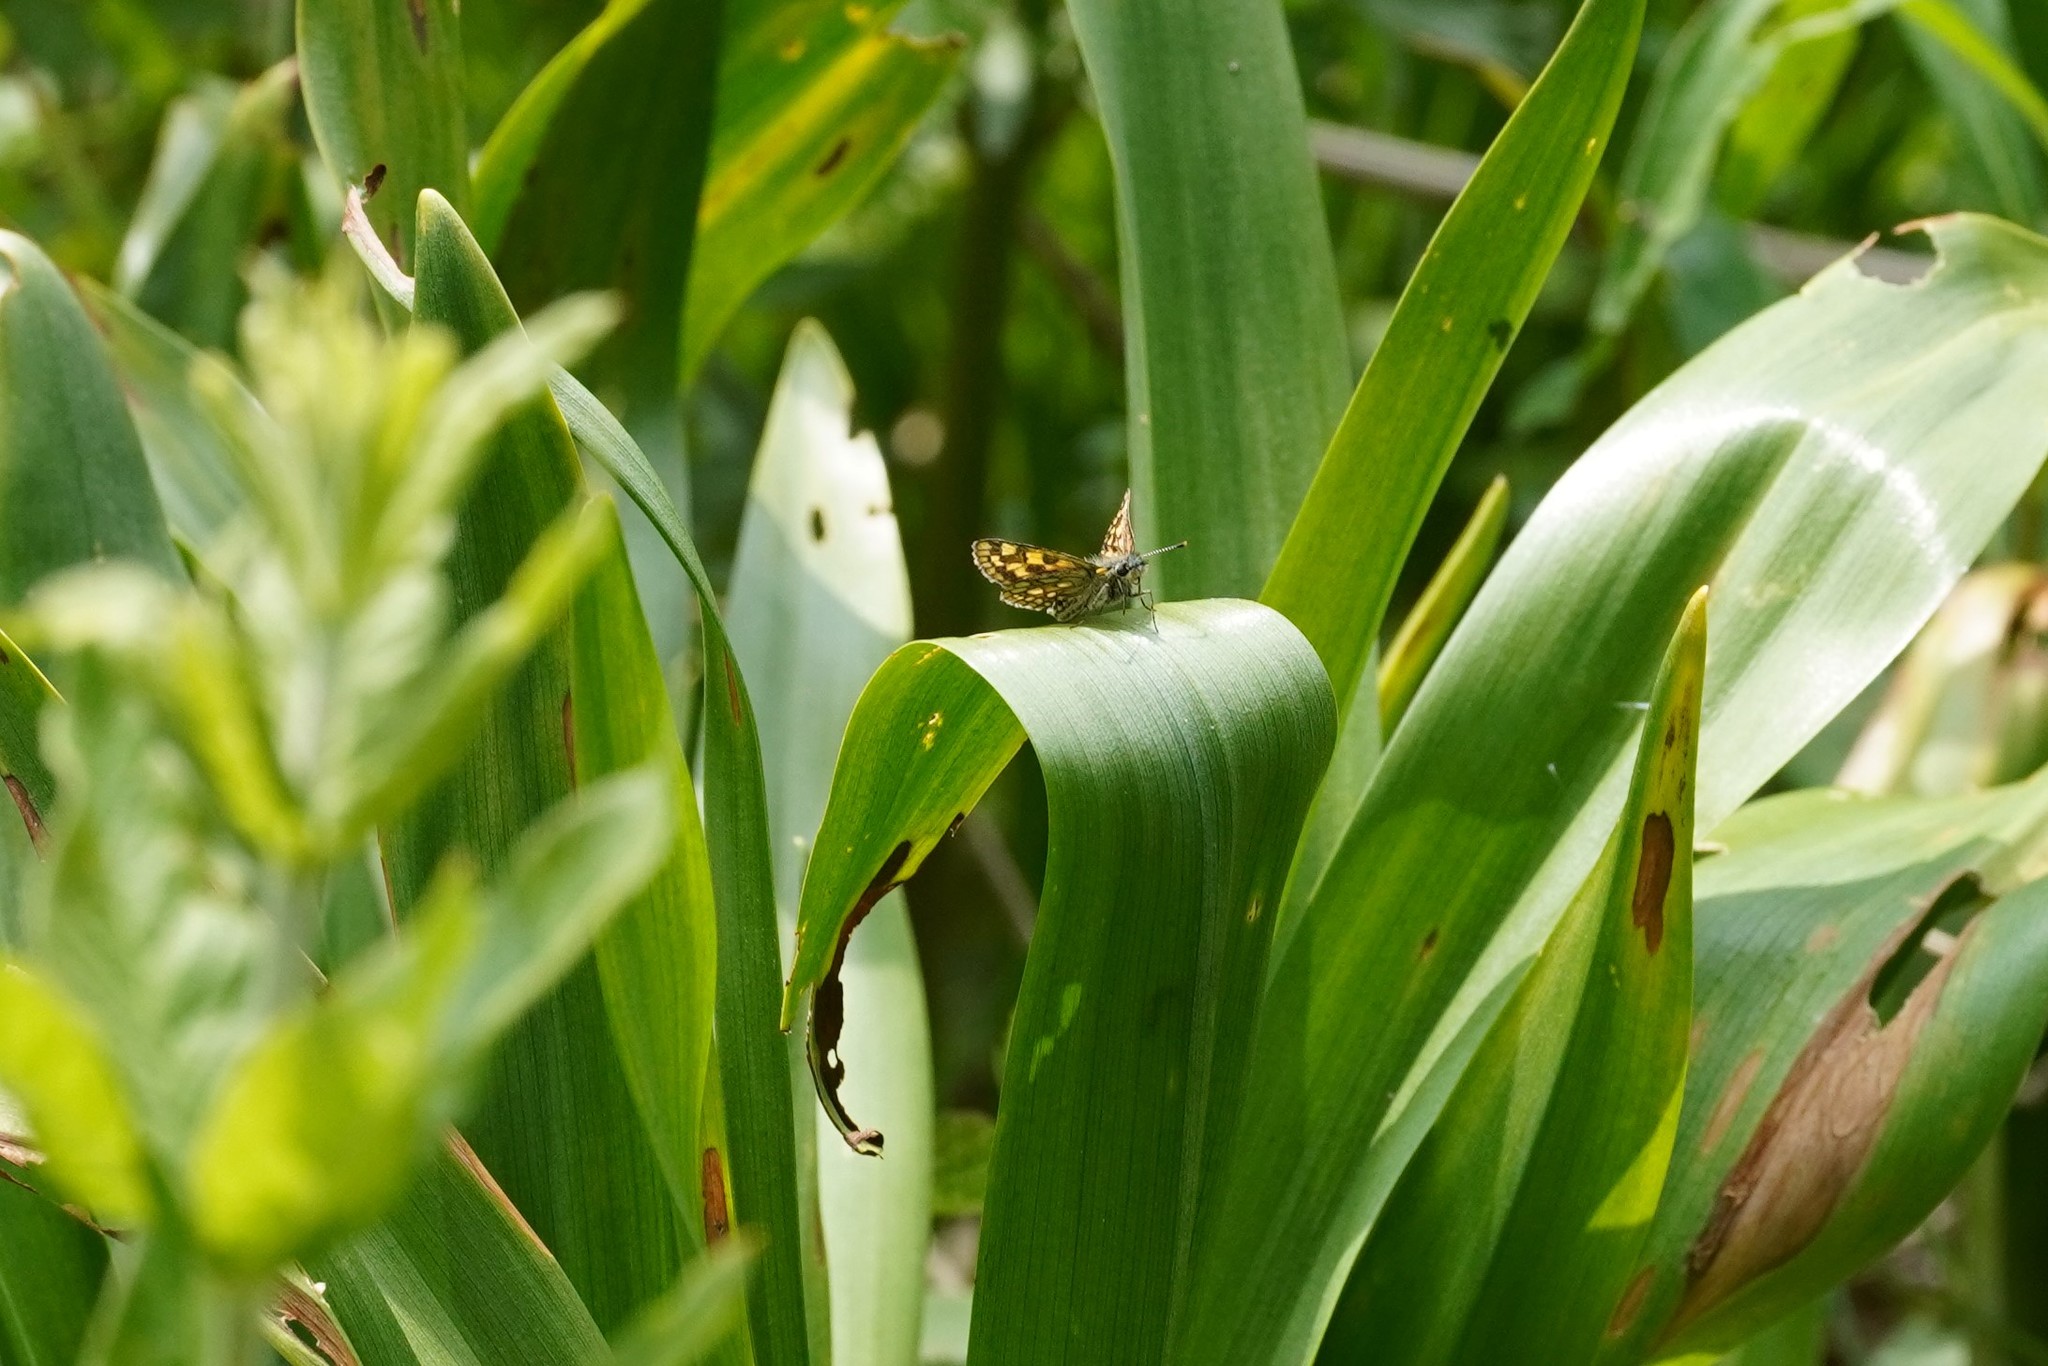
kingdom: Animalia
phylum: Arthropoda
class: Insecta
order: Lepidoptera
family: Hesperiidae
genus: Carterocephalus
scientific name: Carterocephalus palaemon
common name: Chequered skipper
